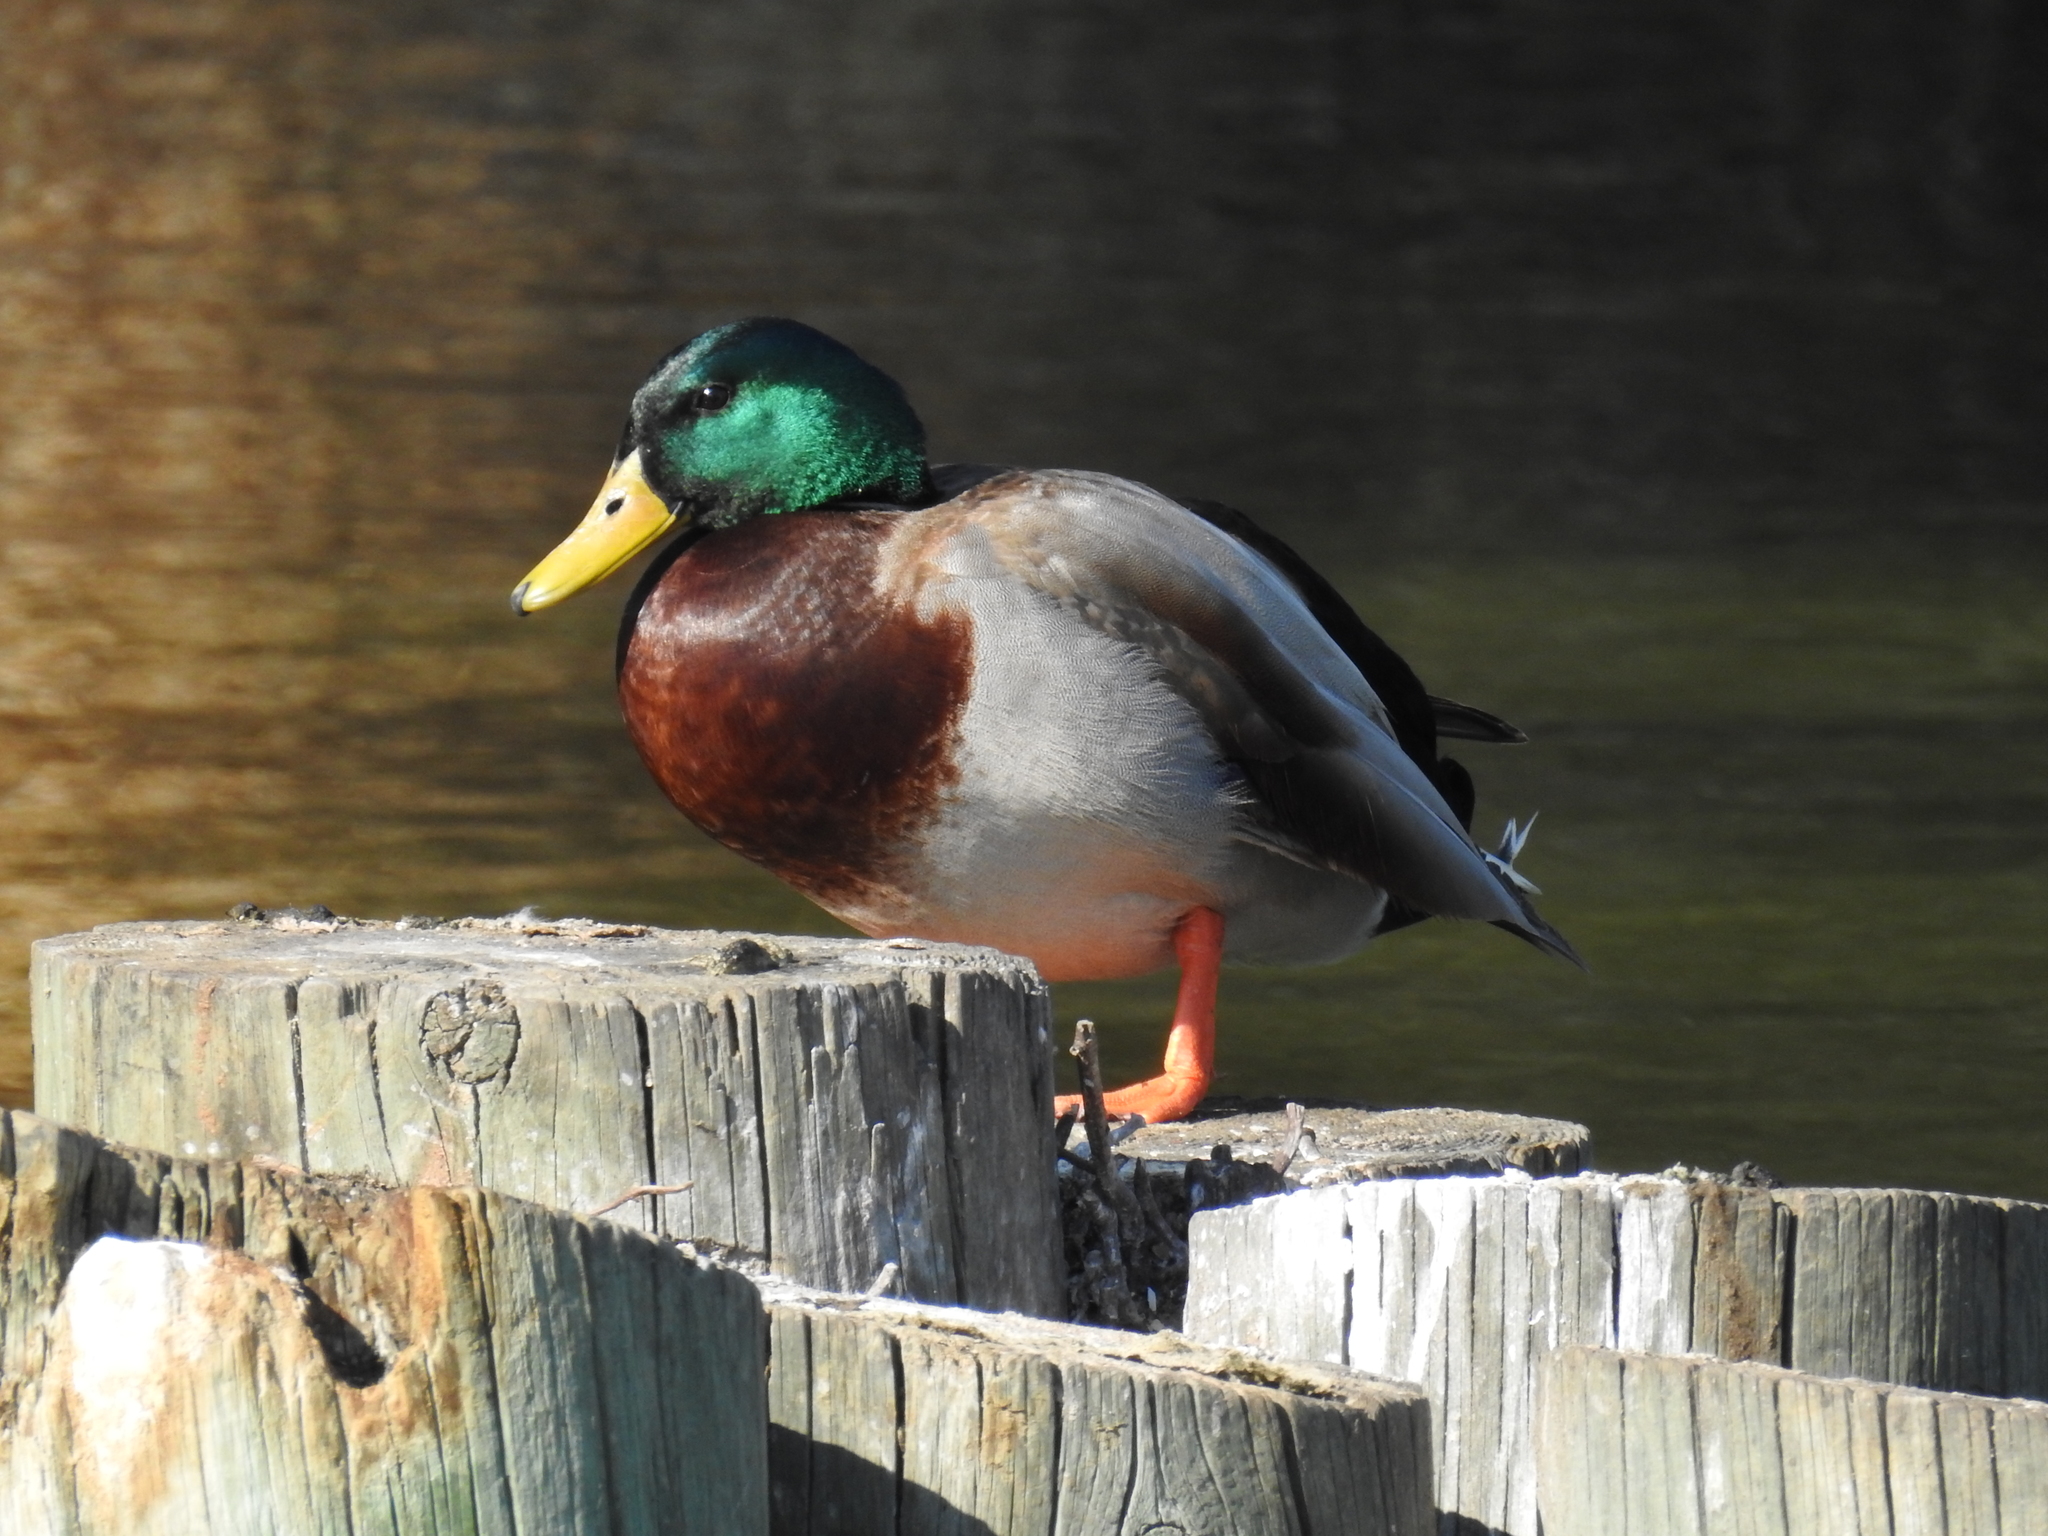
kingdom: Animalia
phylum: Chordata
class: Aves
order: Anseriformes
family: Anatidae
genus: Anas
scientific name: Anas platyrhynchos
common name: Mallard
